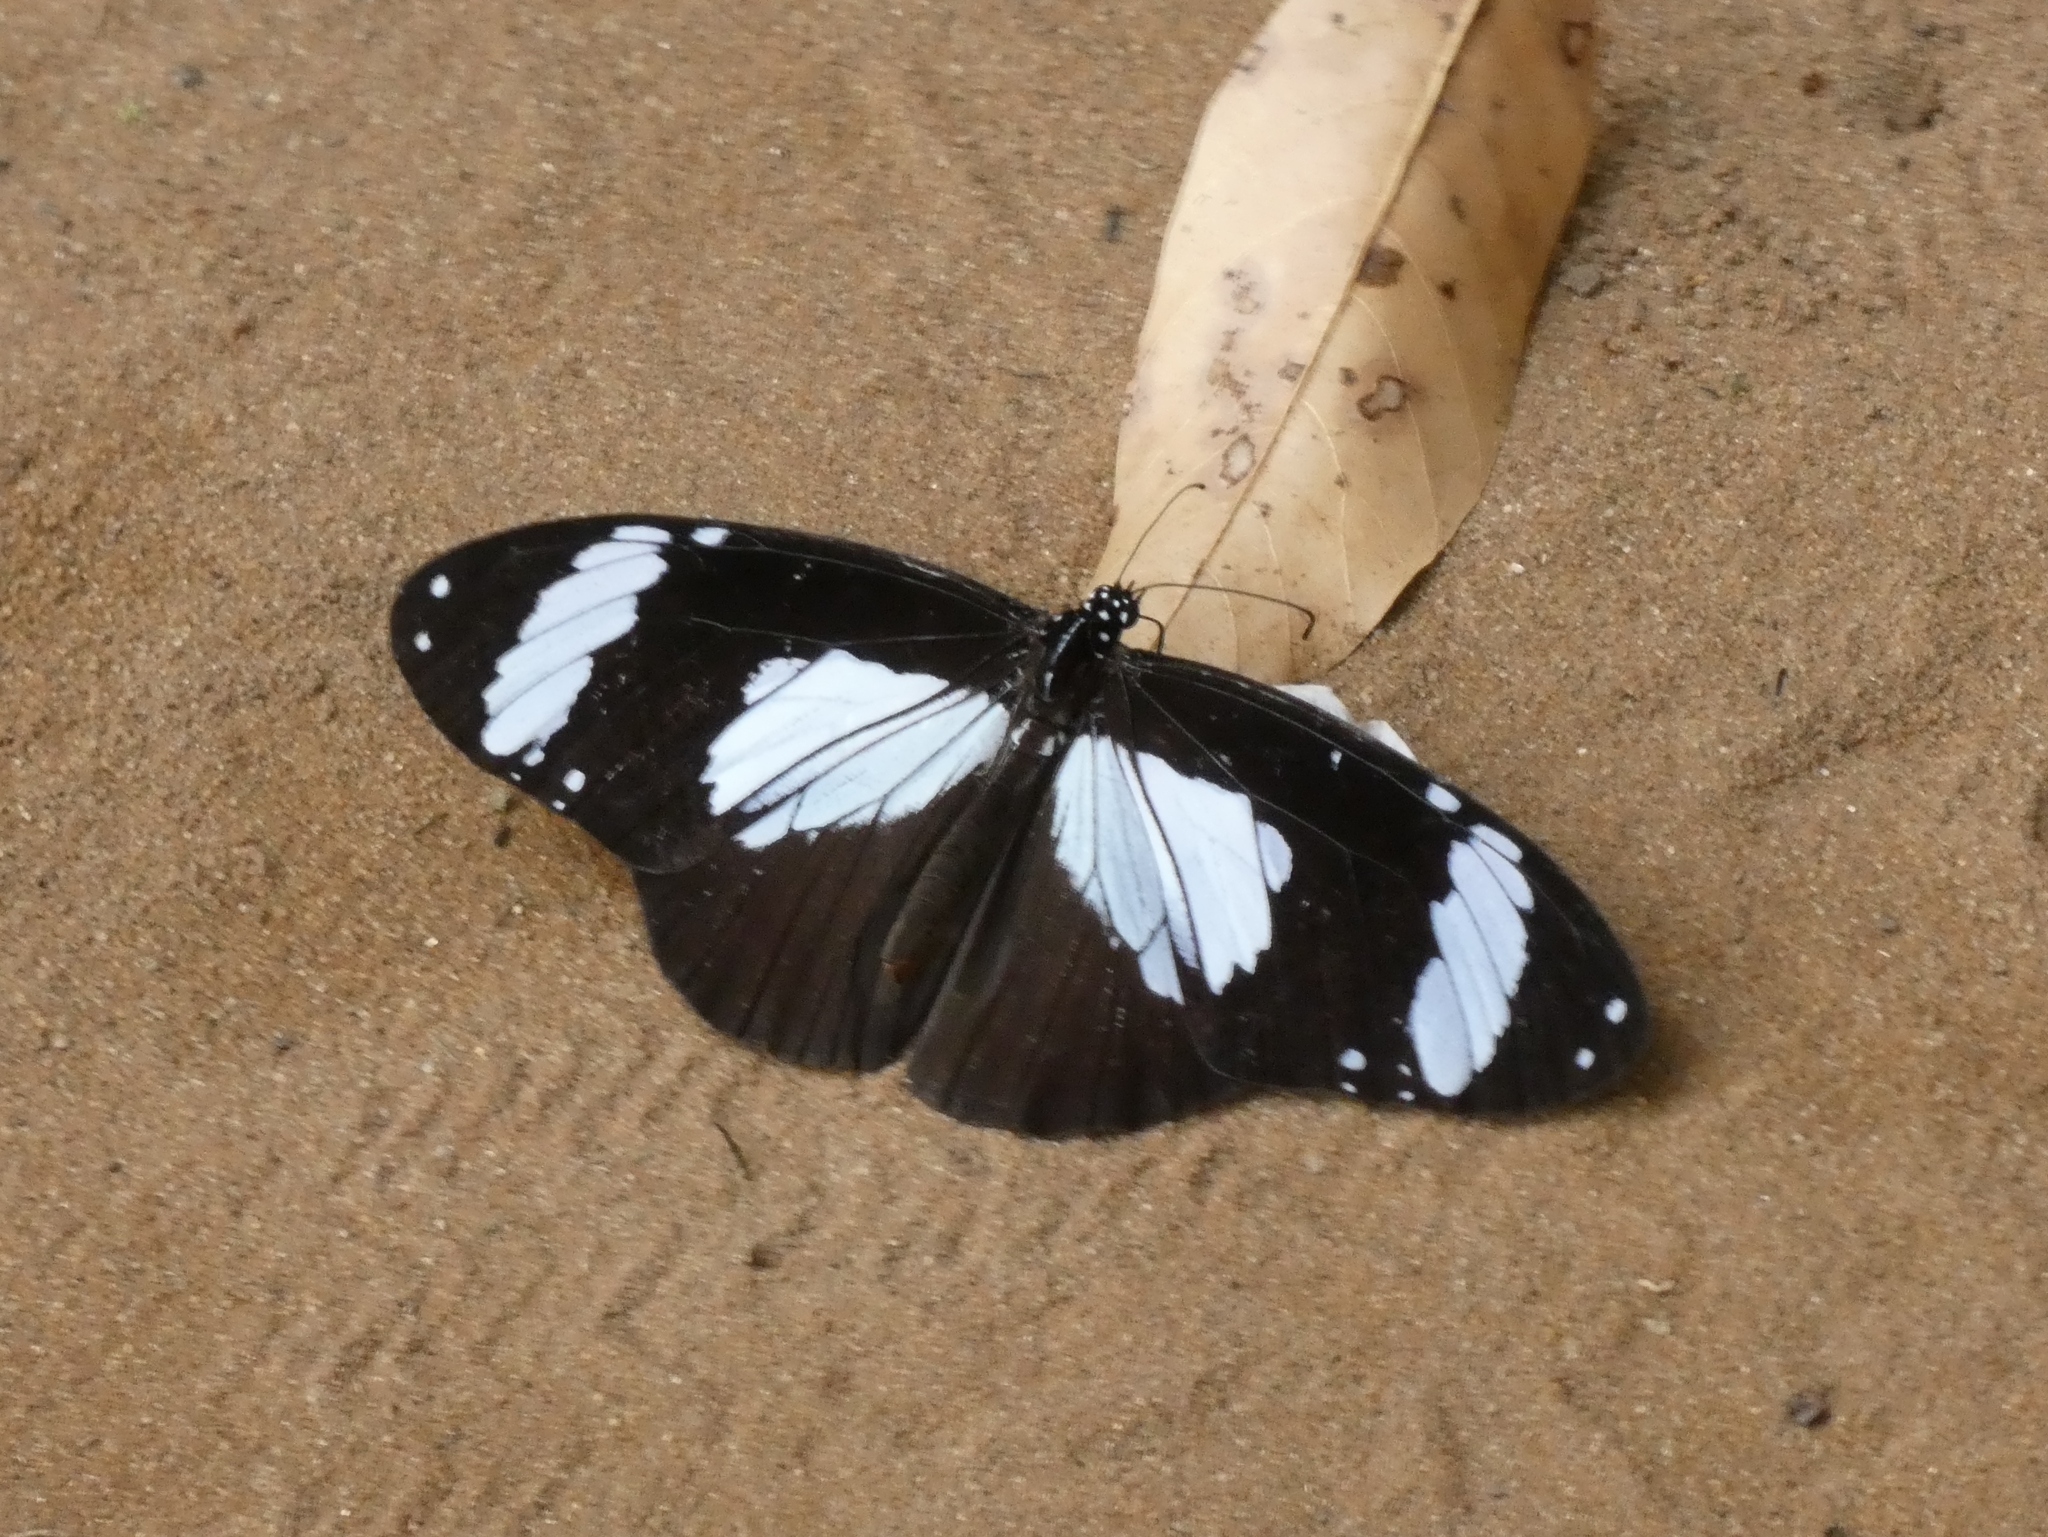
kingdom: Animalia
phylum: Arthropoda
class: Insecta
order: Lepidoptera
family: Nymphalidae
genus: Amauris
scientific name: Amauris niavius
